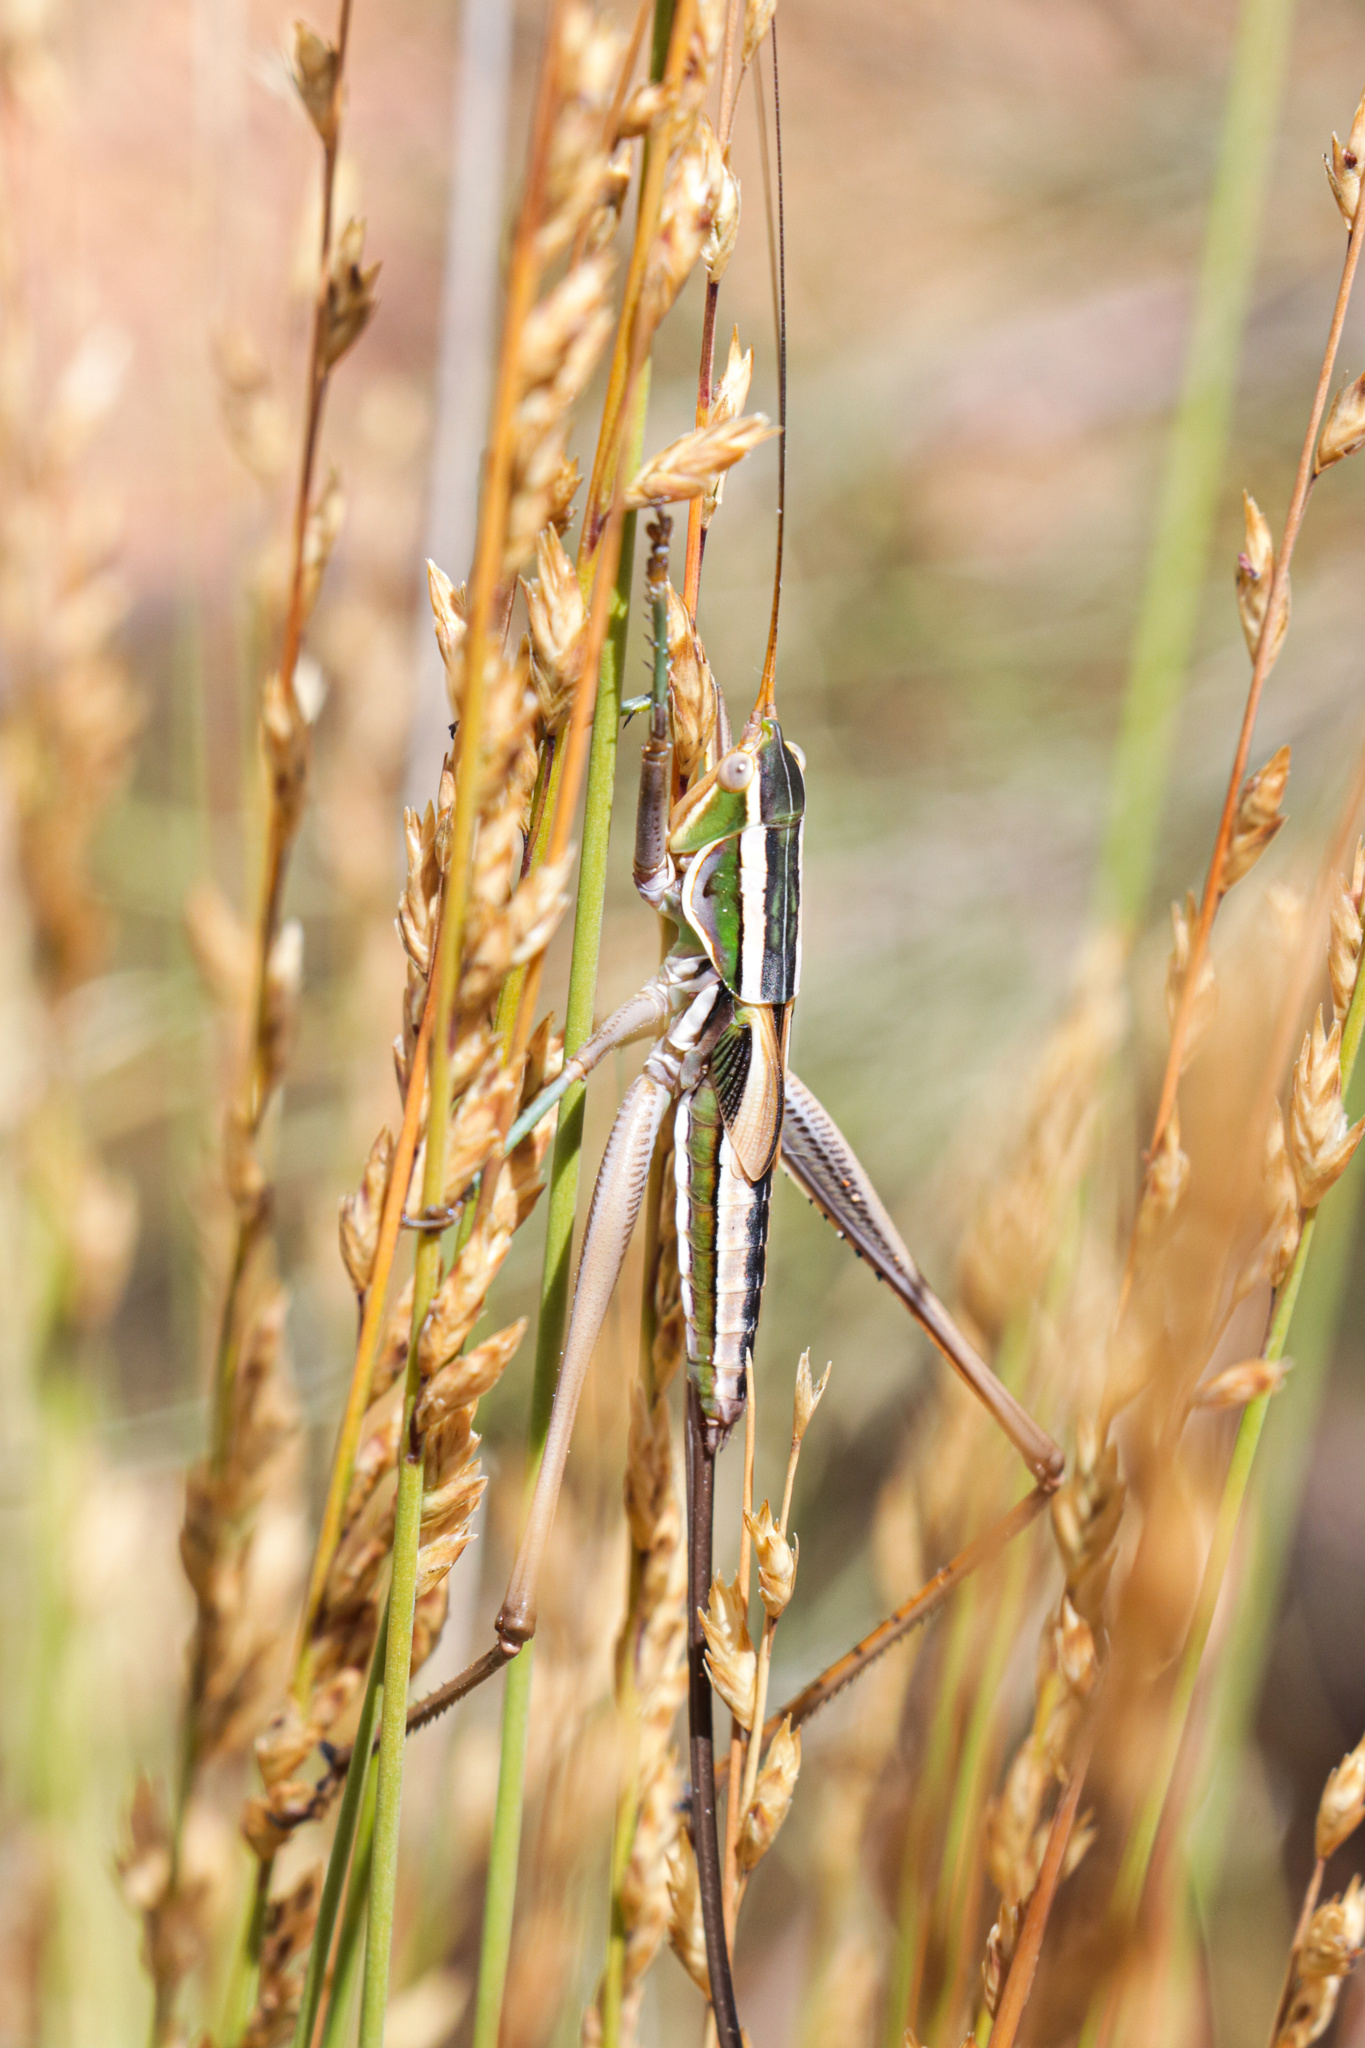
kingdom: Animalia
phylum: Arthropoda
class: Insecta
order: Orthoptera
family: Tettigoniidae
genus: Metaballus
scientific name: Metaballus decticoides
